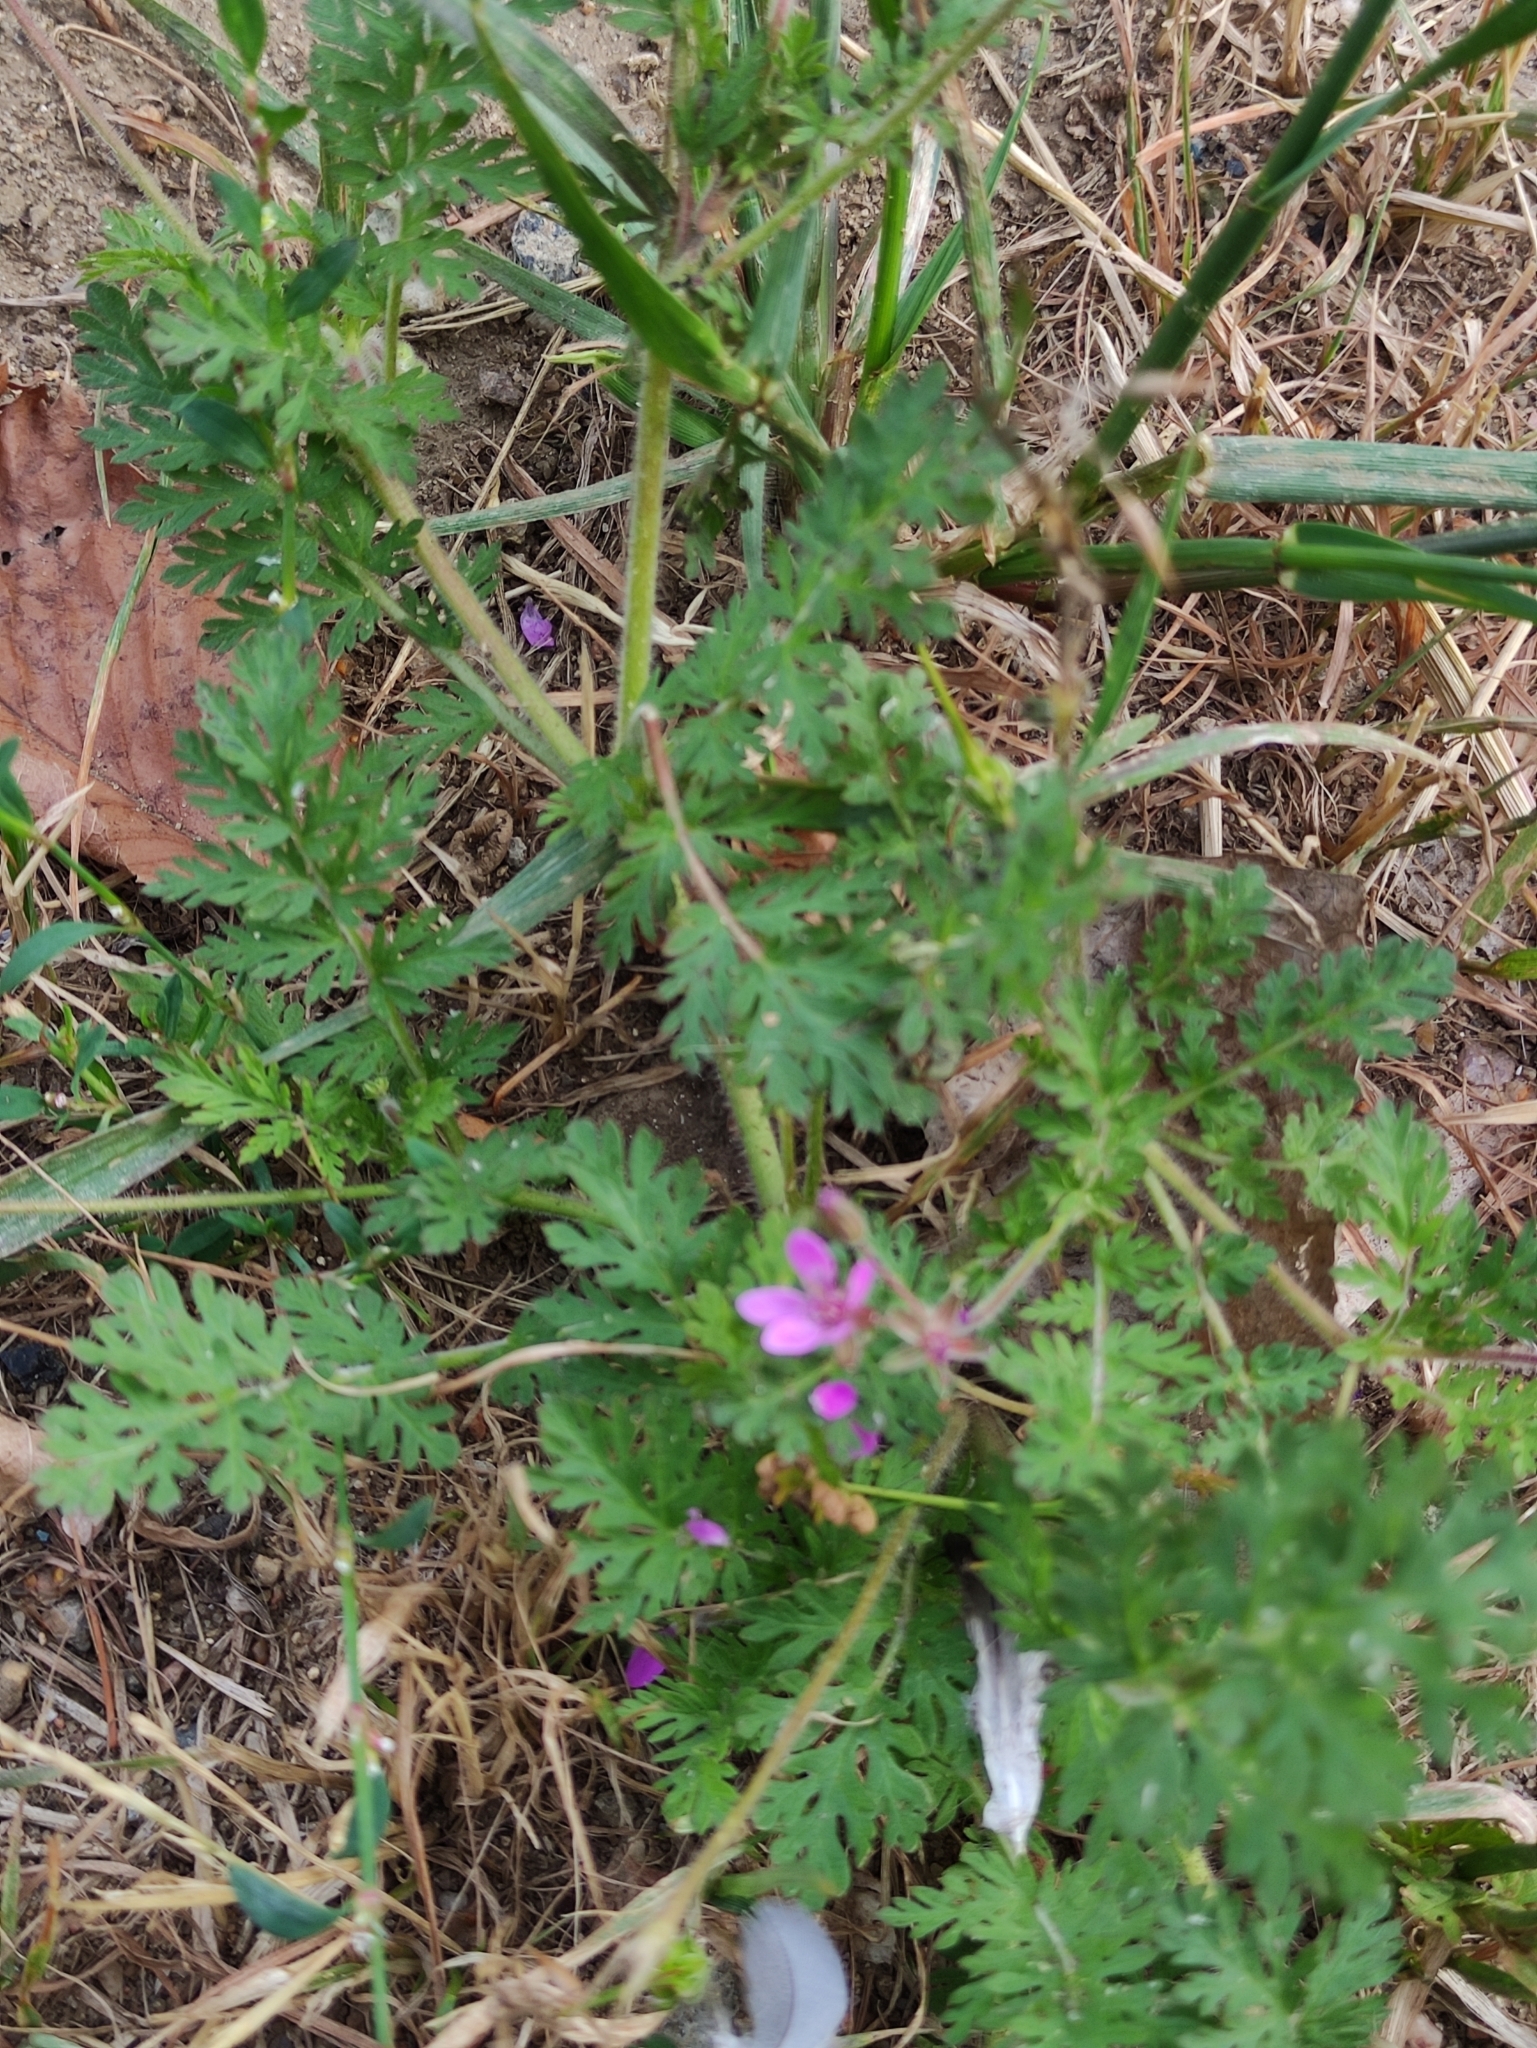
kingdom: Plantae
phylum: Tracheophyta
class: Magnoliopsida
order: Geraniales
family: Geraniaceae
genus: Erodium
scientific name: Erodium cicutarium
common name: Common stork's-bill
